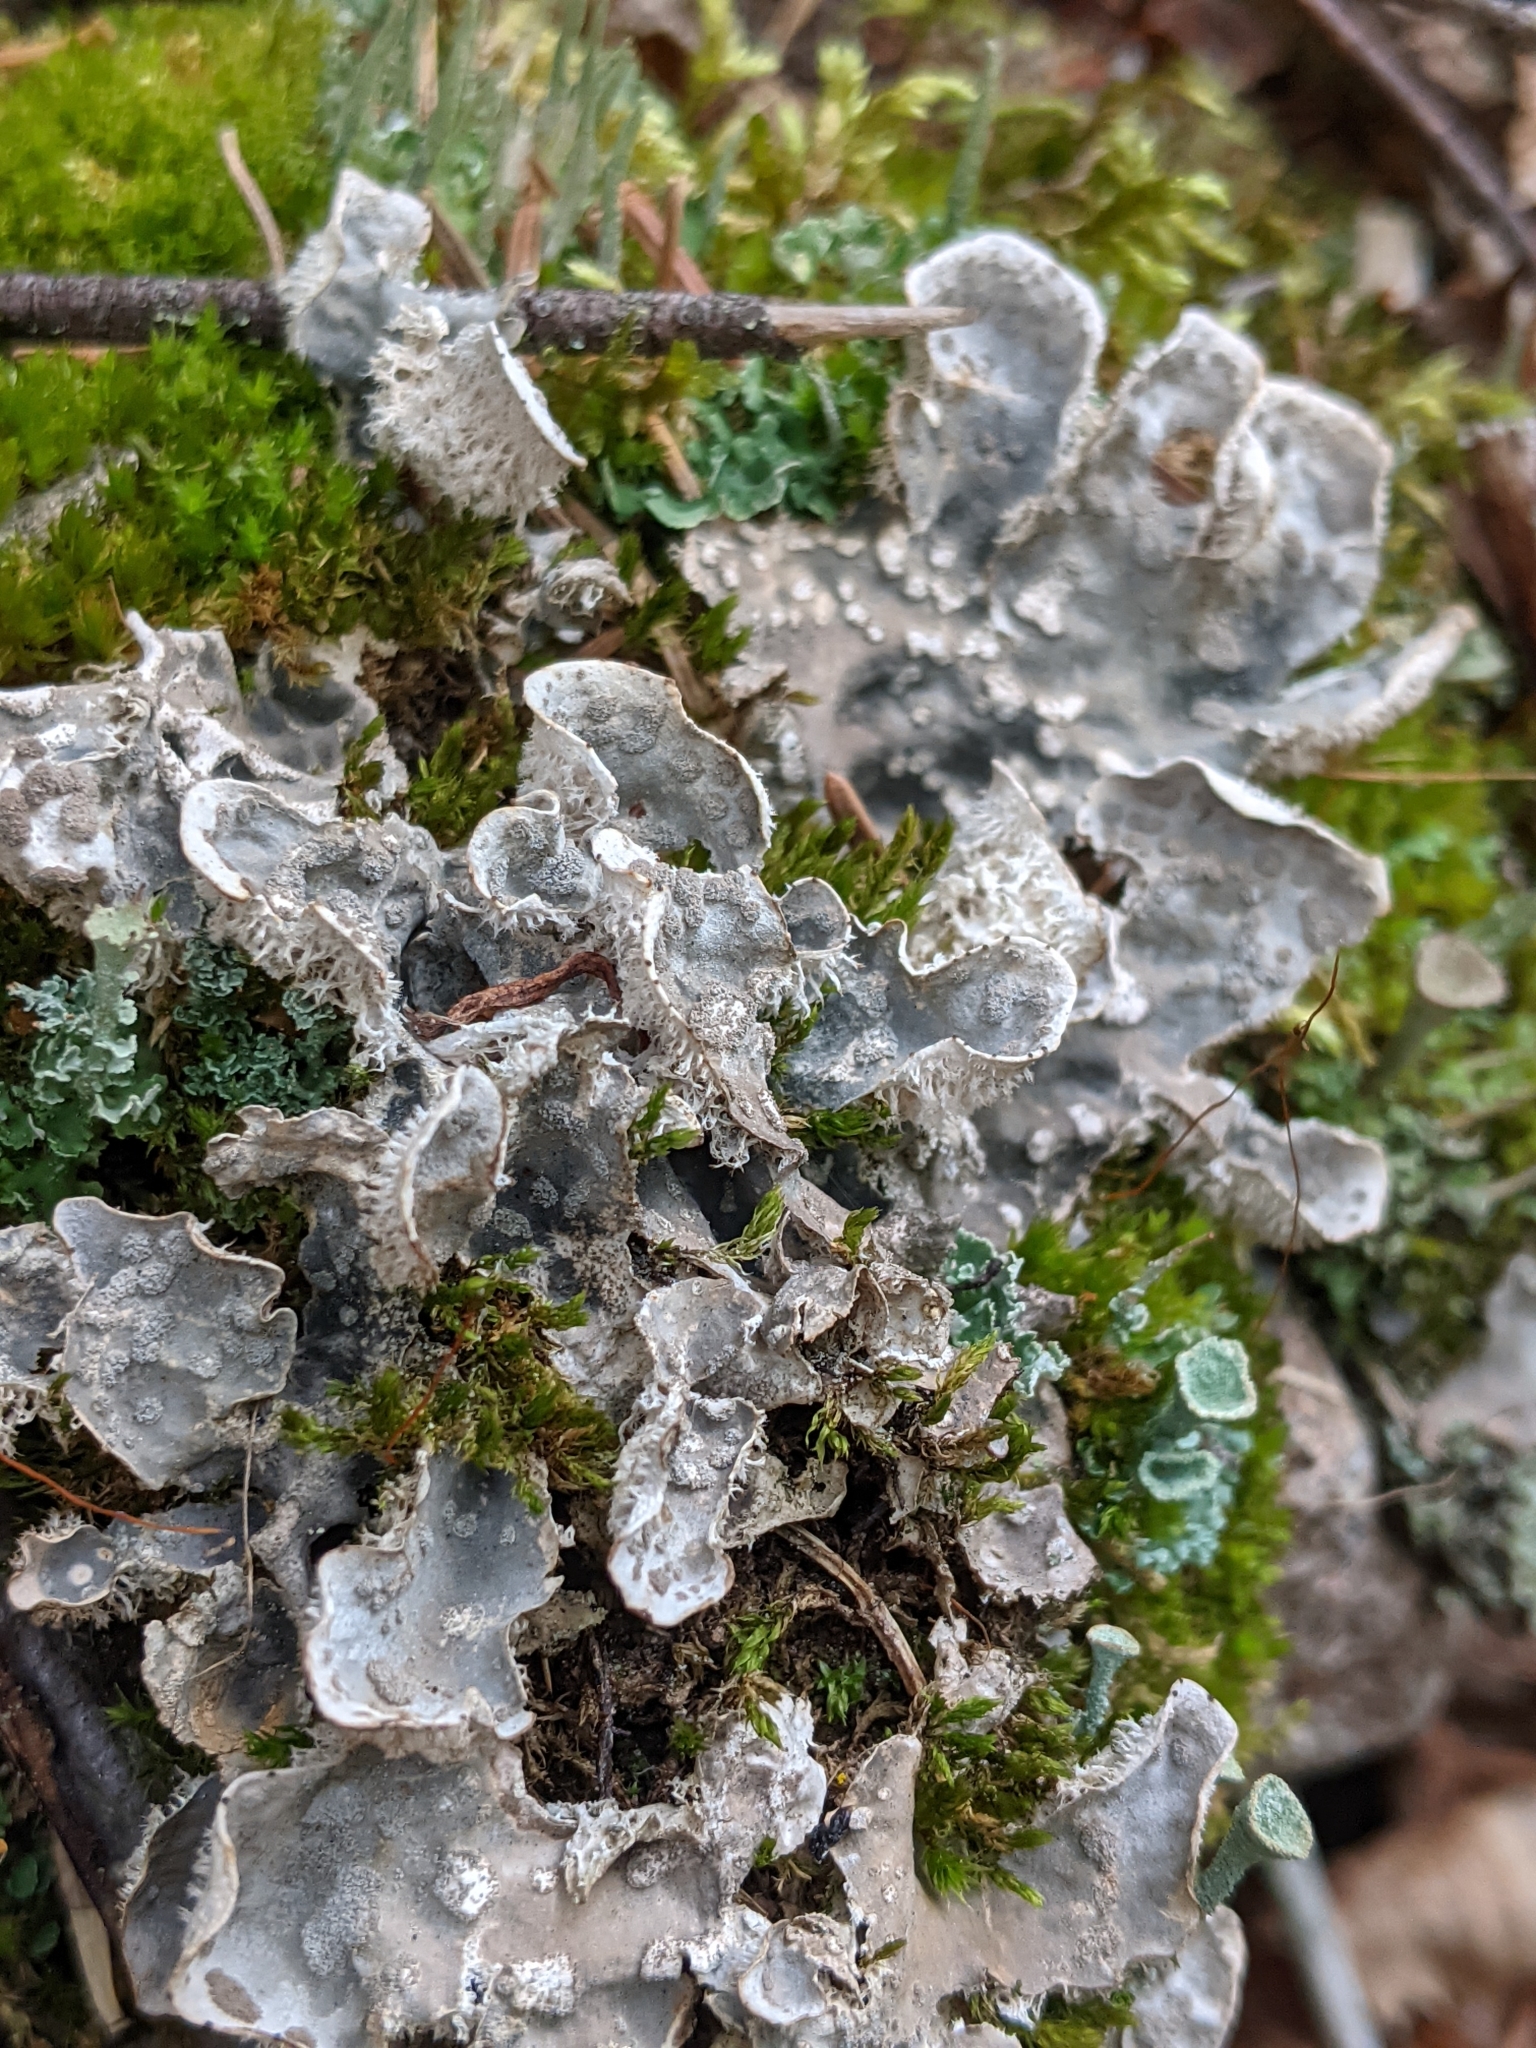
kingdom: Fungi
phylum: Ascomycota
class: Lecanoromycetes
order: Peltigerales
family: Peltigeraceae
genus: Peltigera
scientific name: Peltigera extenuata
